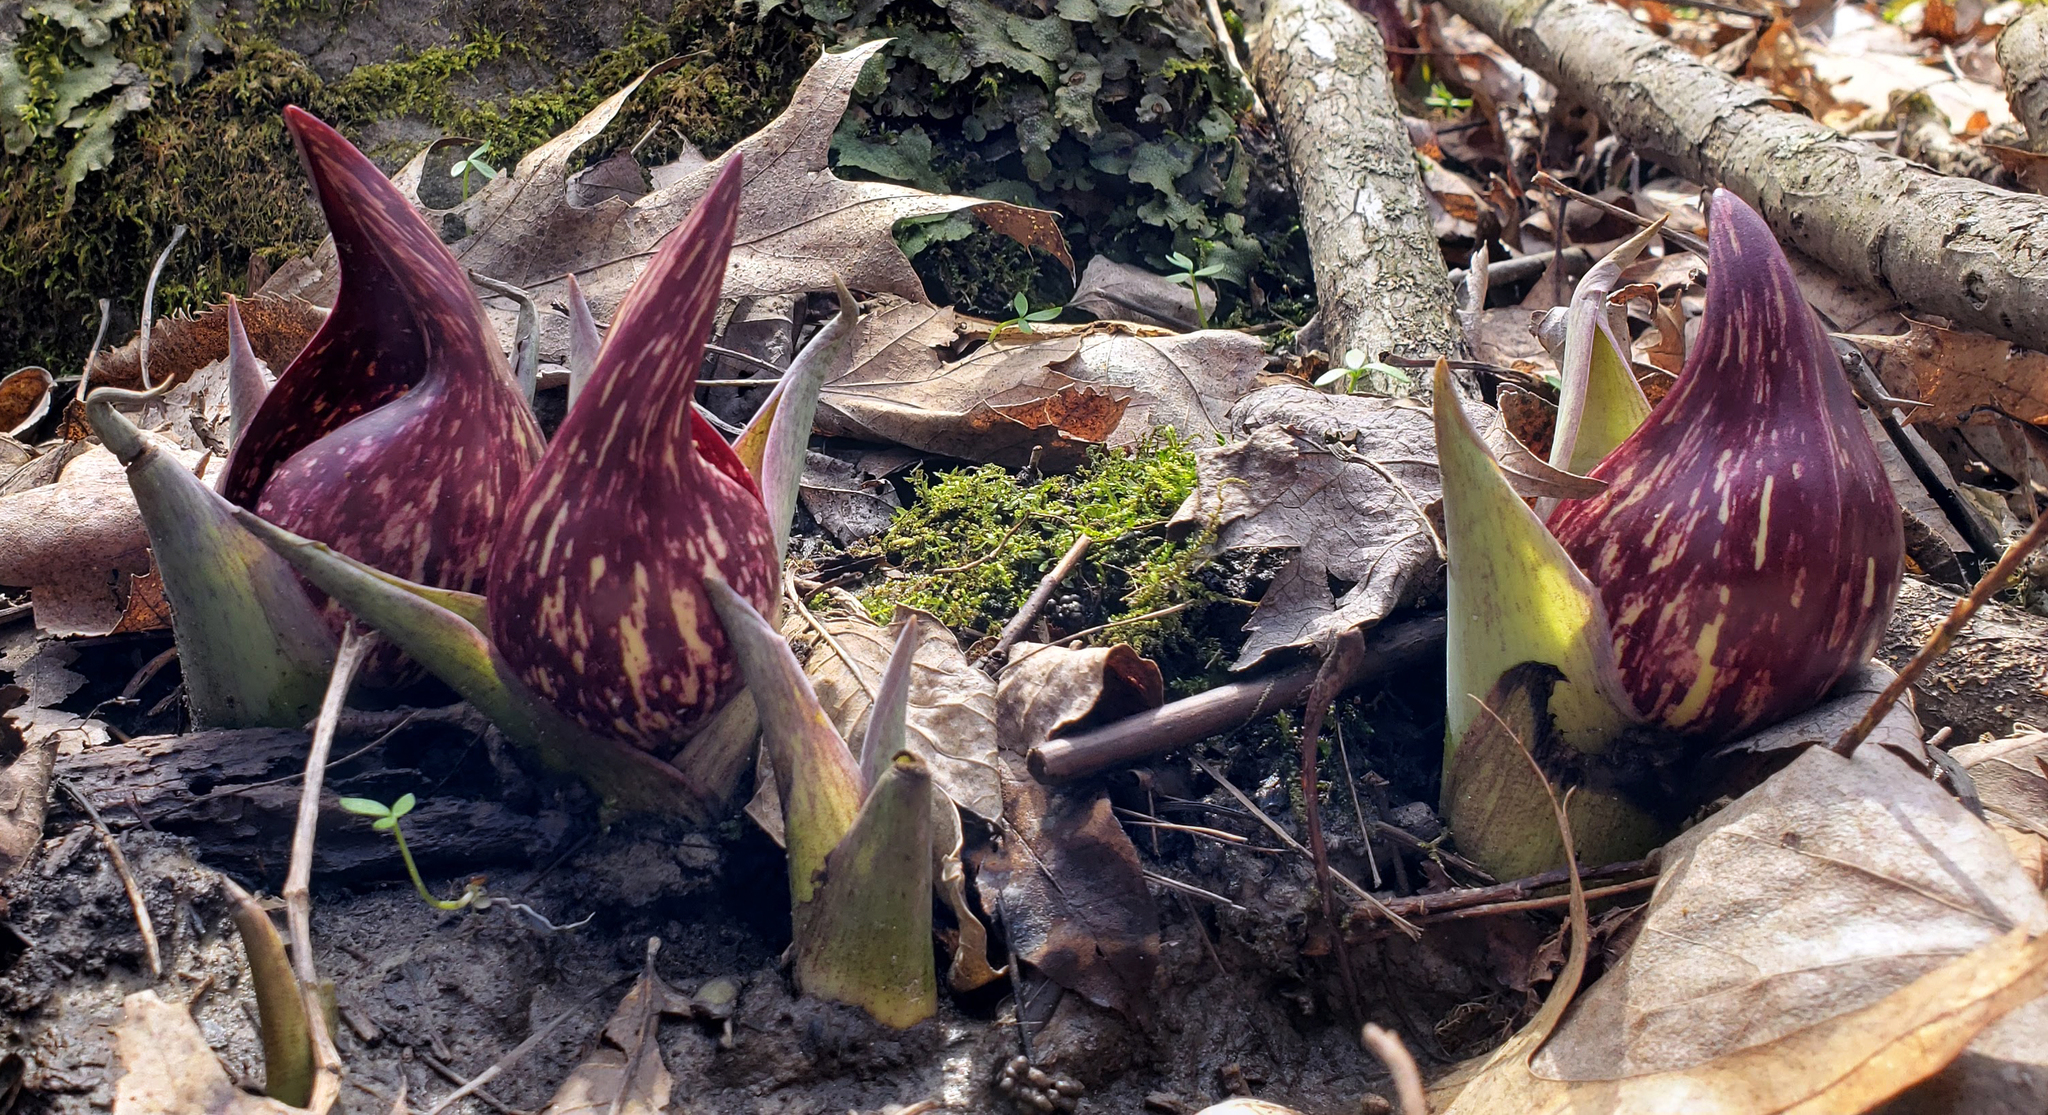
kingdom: Plantae
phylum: Tracheophyta
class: Liliopsida
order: Alismatales
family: Araceae
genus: Symplocarpus
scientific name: Symplocarpus foetidus
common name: Eastern skunk cabbage
